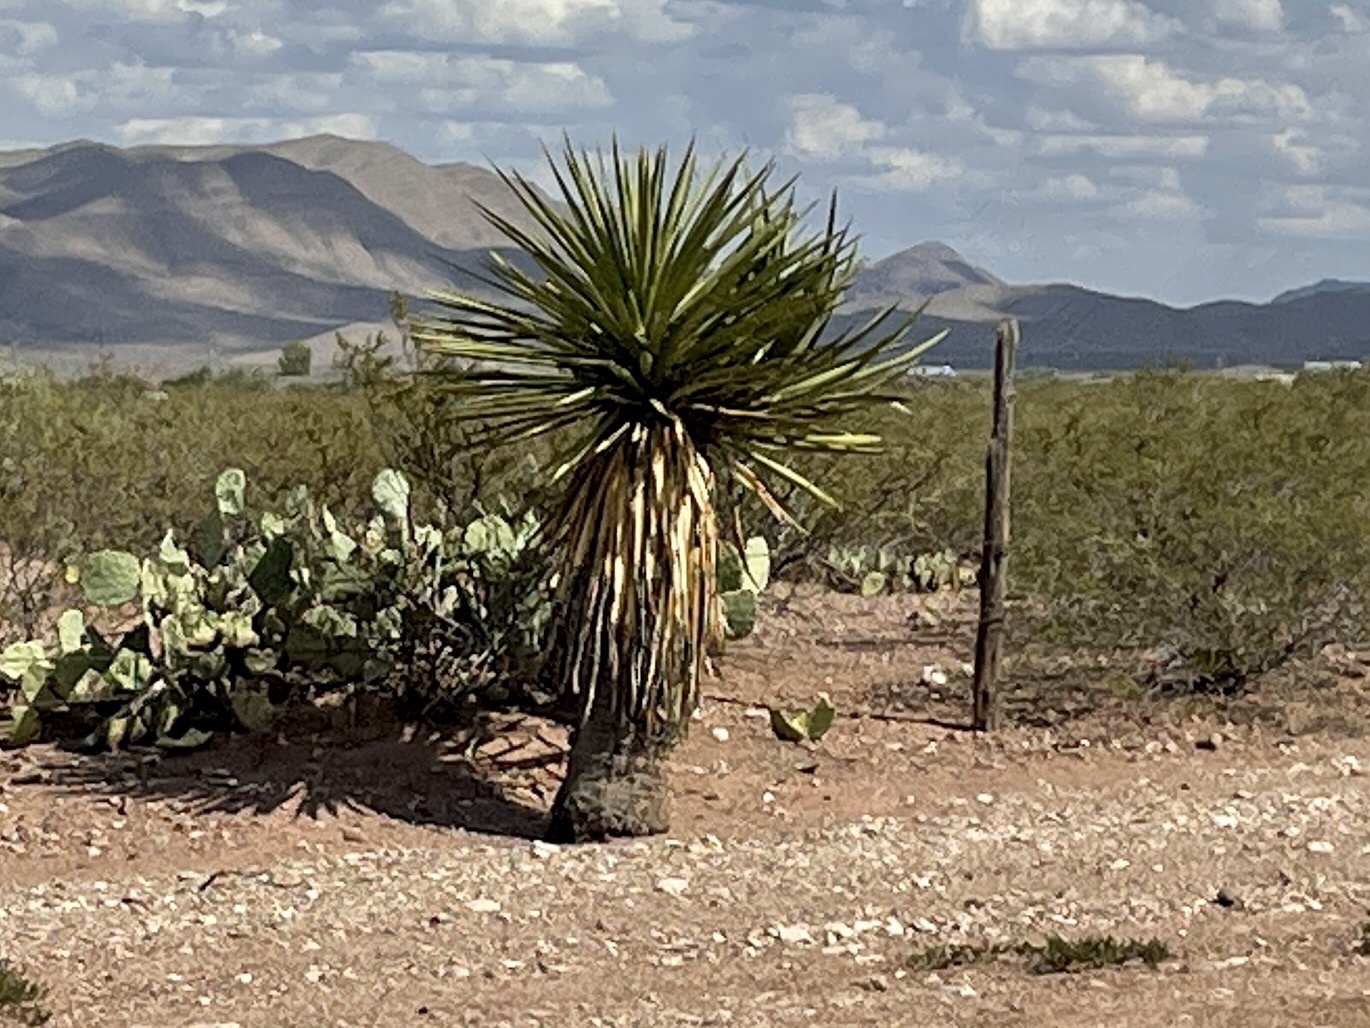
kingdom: Plantae
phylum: Tracheophyta
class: Liliopsida
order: Asparagales
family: Asparagaceae
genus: Yucca
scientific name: Yucca treculiana
